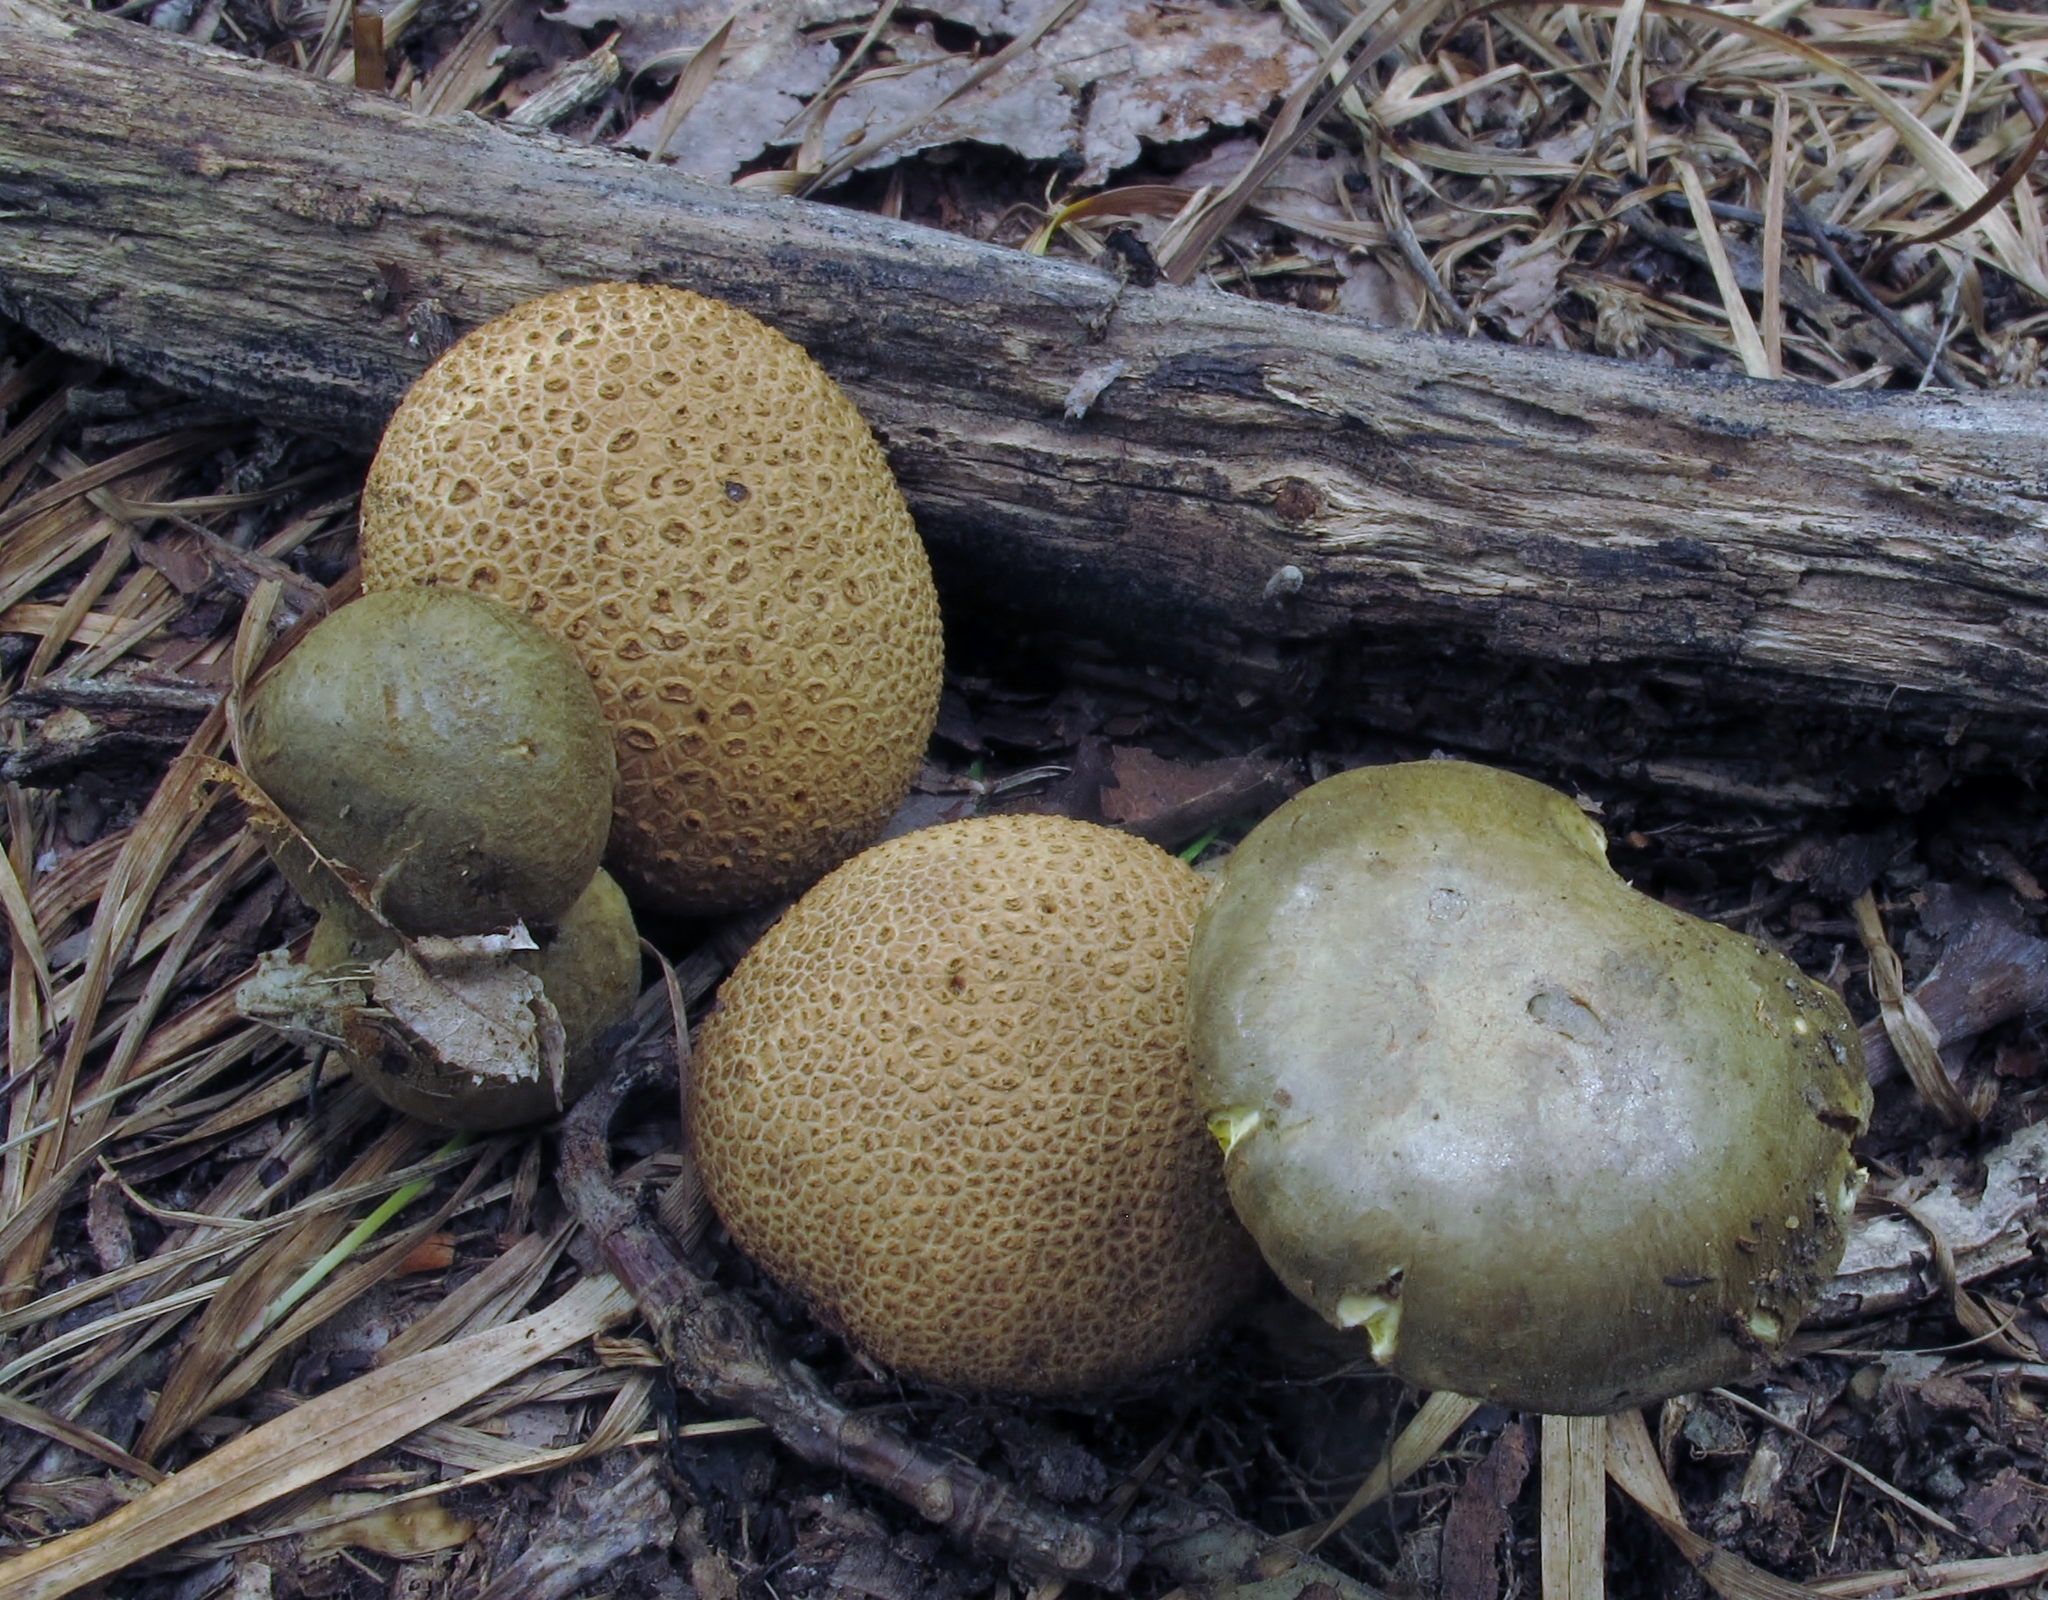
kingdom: Fungi
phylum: Basidiomycota
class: Agaricomycetes
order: Boletales
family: Boletaceae
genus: Pseudoboletus
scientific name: Pseudoboletus parasiticus
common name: Parasitic bolete
